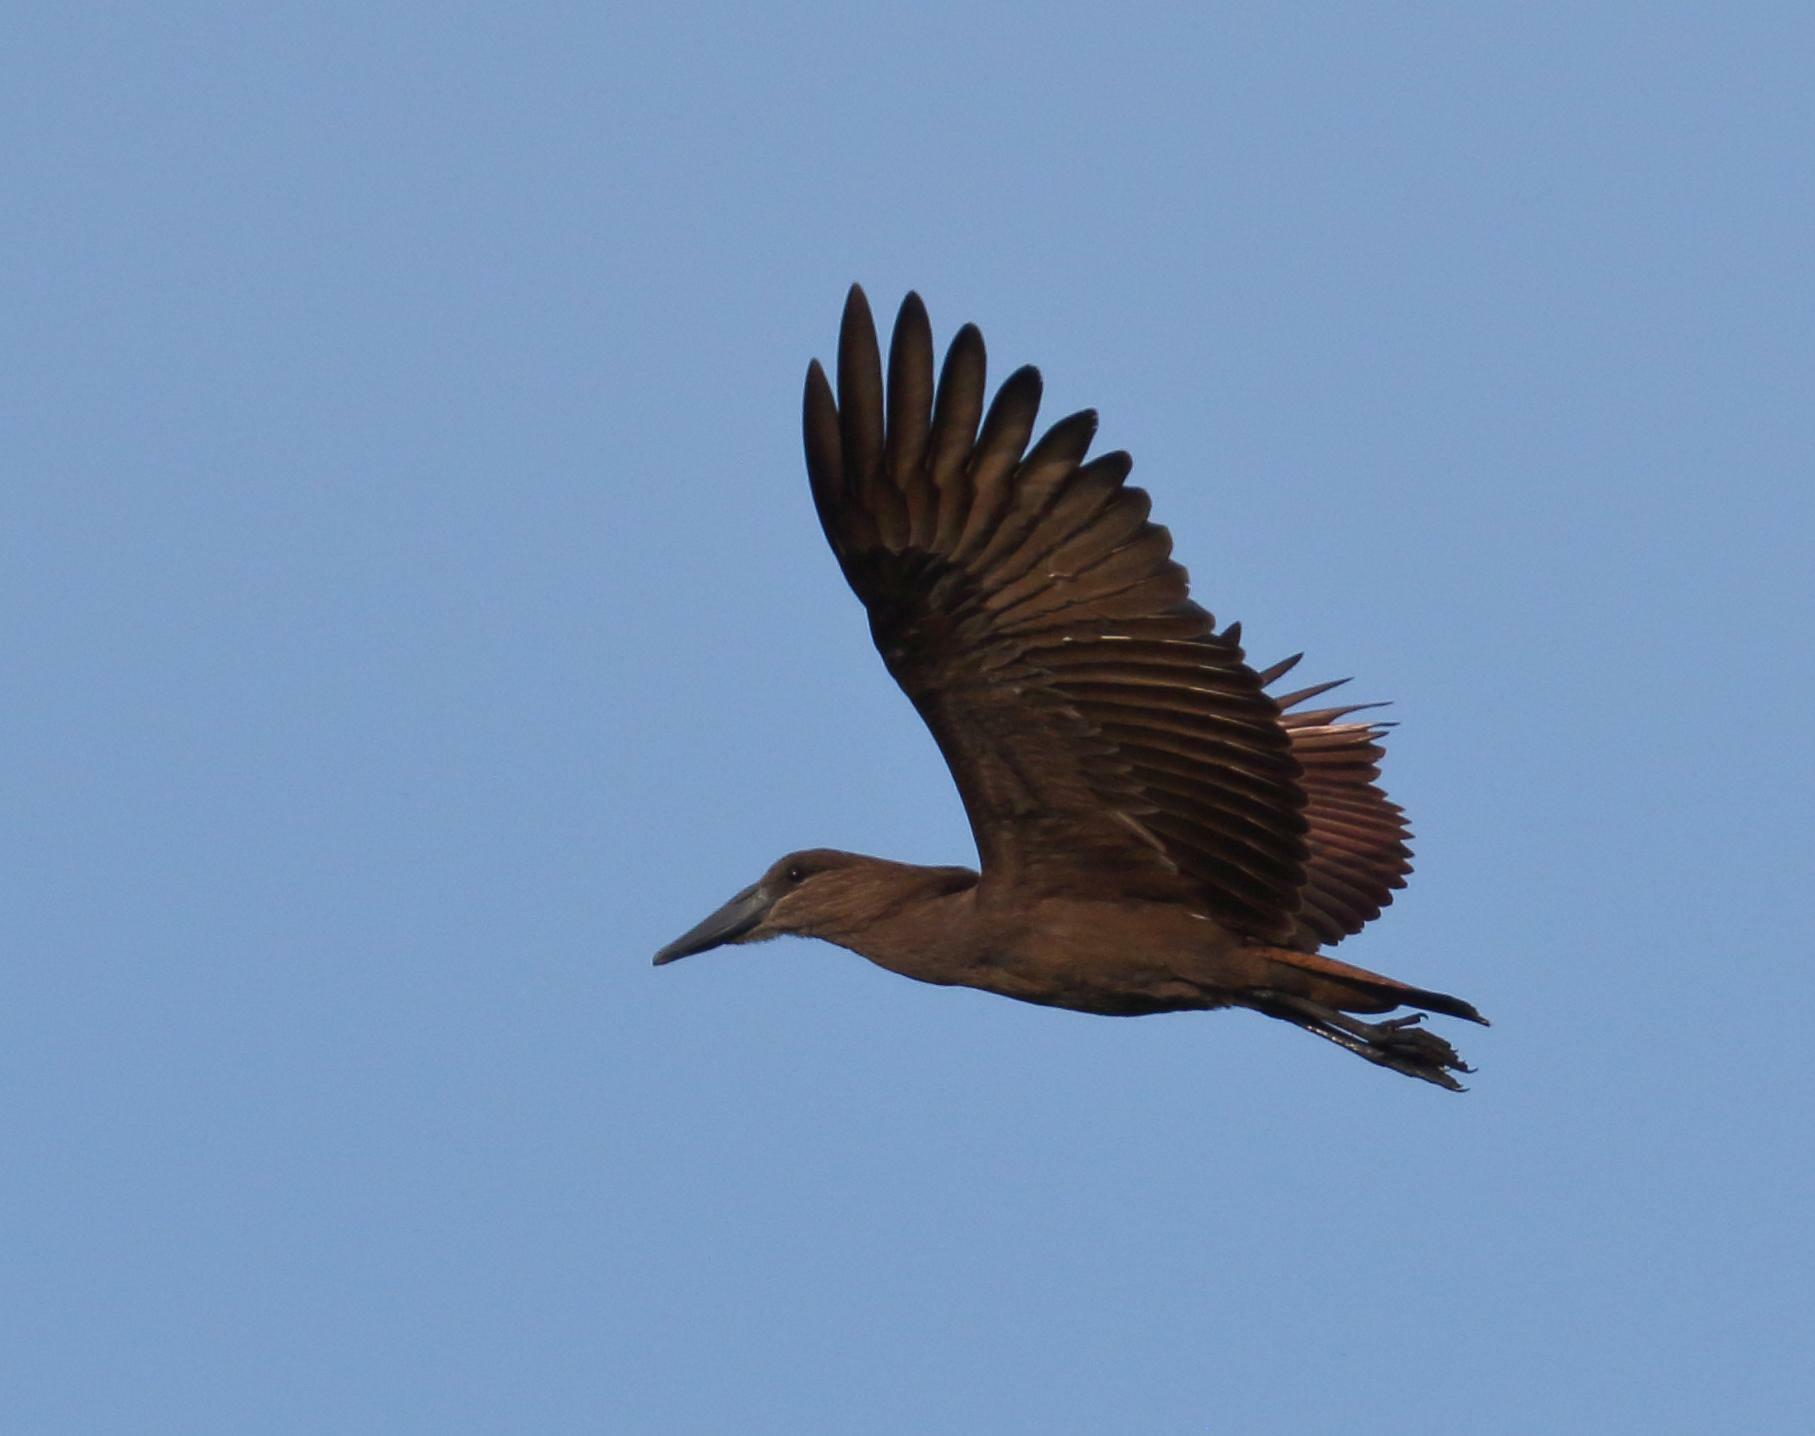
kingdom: Animalia
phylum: Chordata
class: Aves
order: Pelecaniformes
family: Scopidae
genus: Scopus
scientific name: Scopus umbretta
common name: Hamerkop
